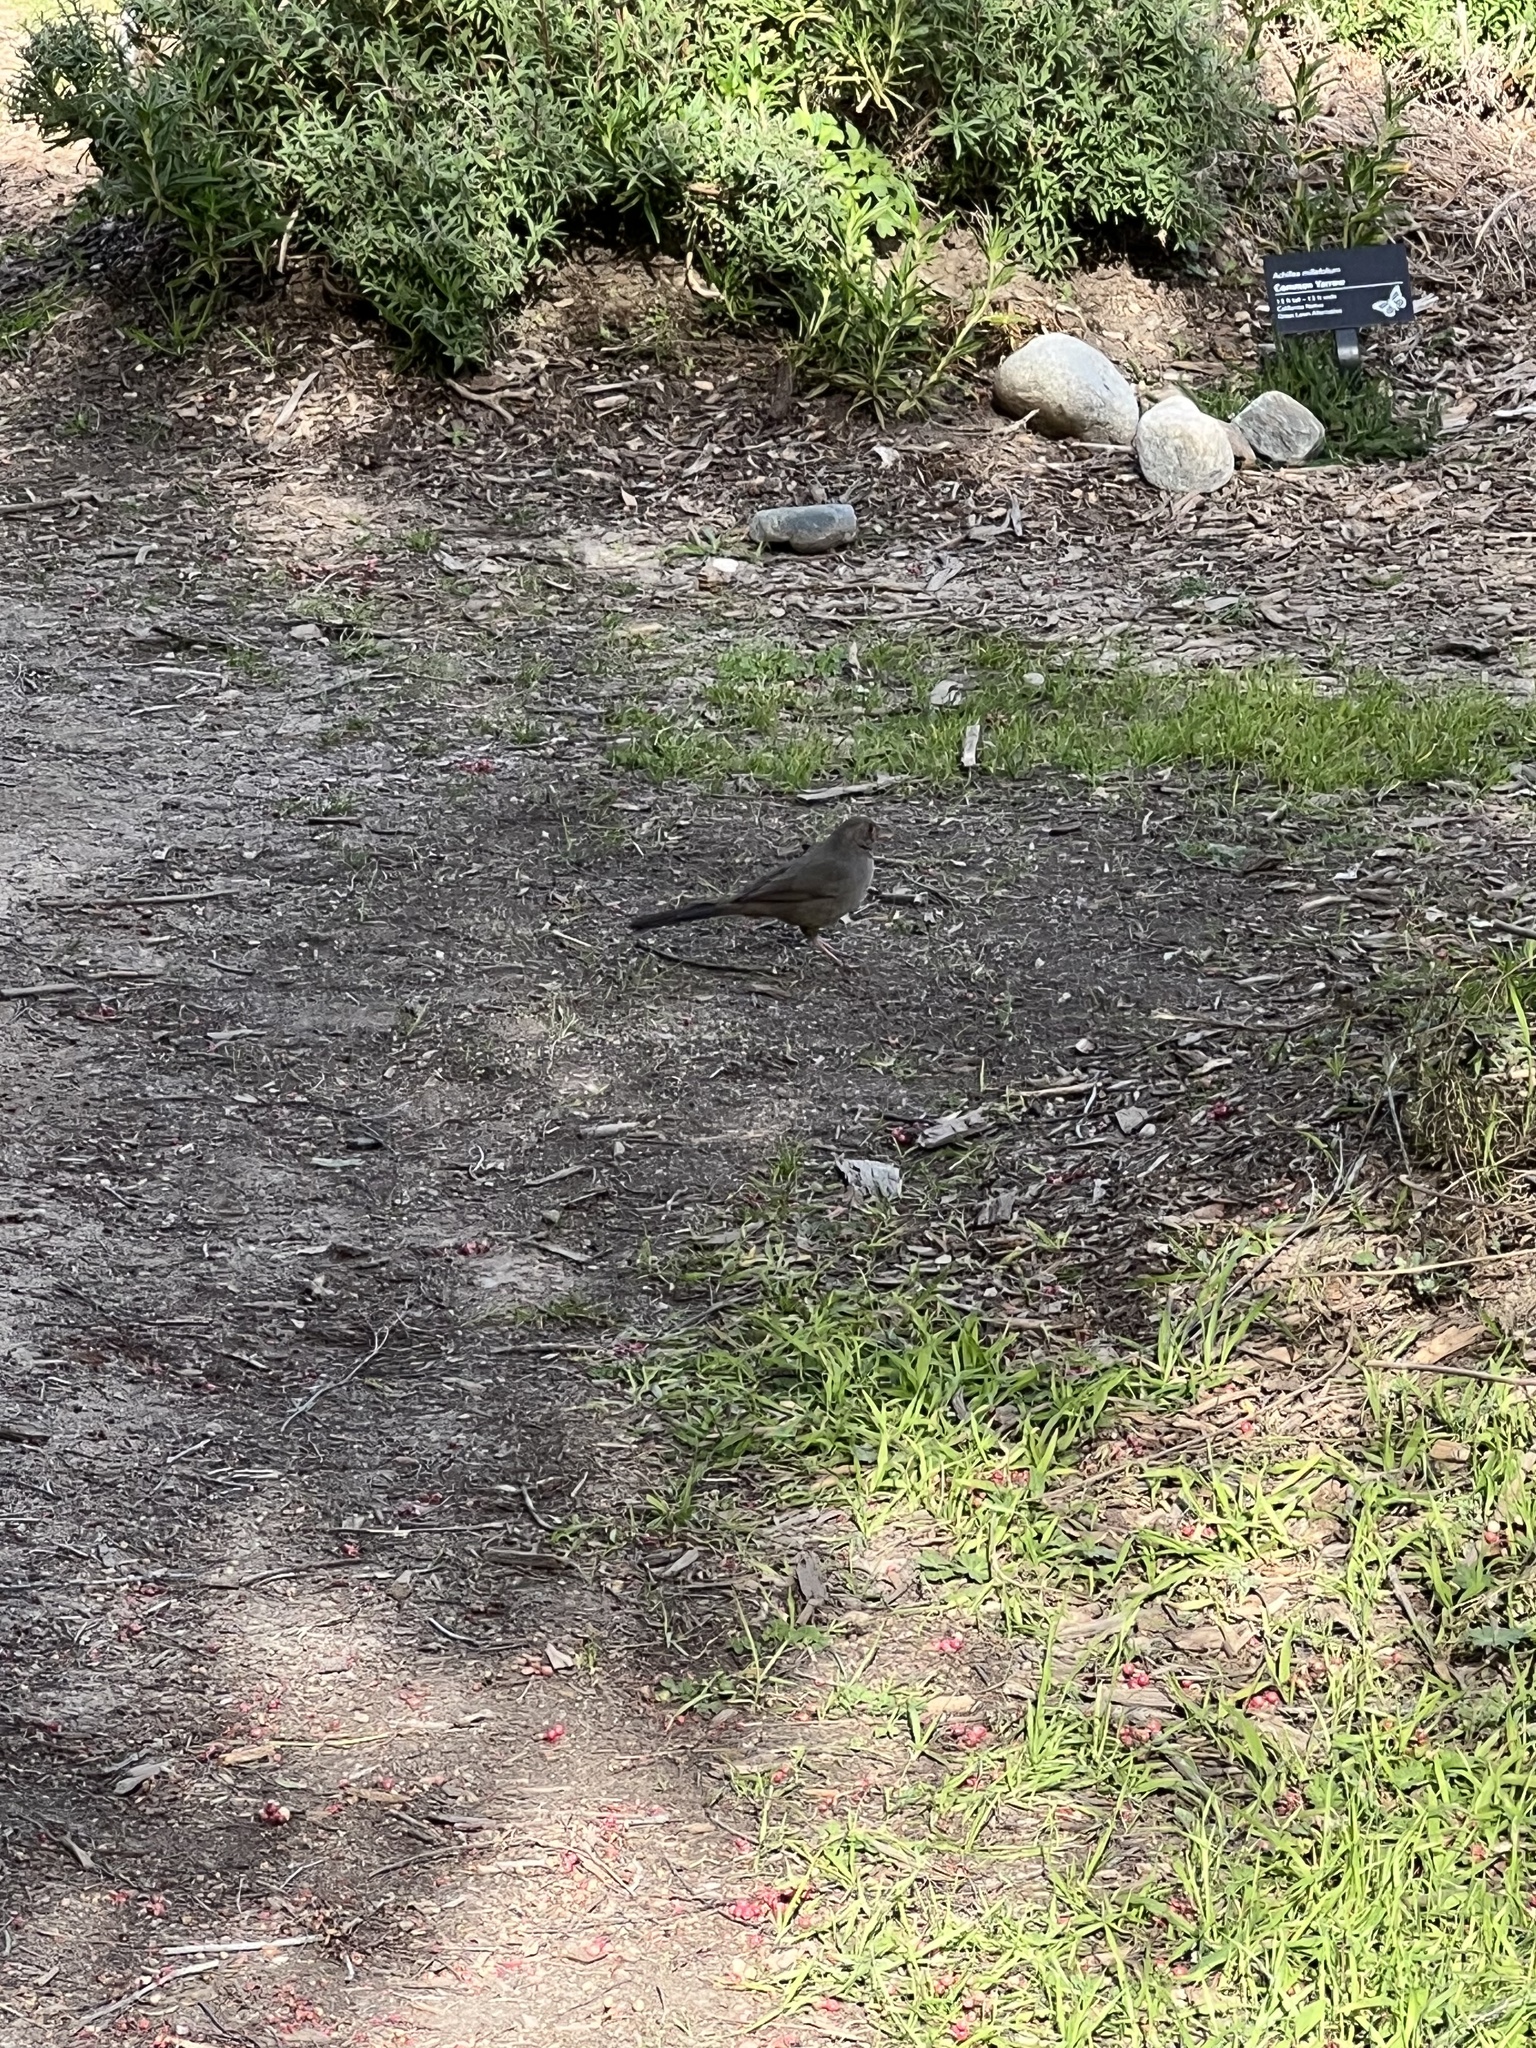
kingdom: Animalia
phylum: Chordata
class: Aves
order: Passeriformes
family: Passerellidae
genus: Melozone
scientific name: Melozone crissalis
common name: California towhee
